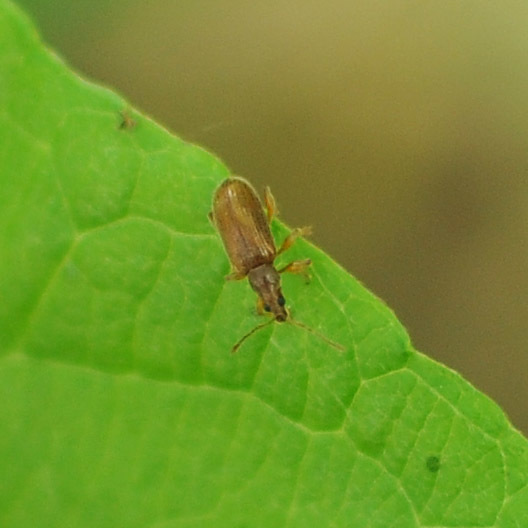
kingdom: Animalia
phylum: Arthropoda
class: Insecta
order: Coleoptera
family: Curculionidae
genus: Phyllobius
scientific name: Phyllobius oblongus
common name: Brown leaf weevil
